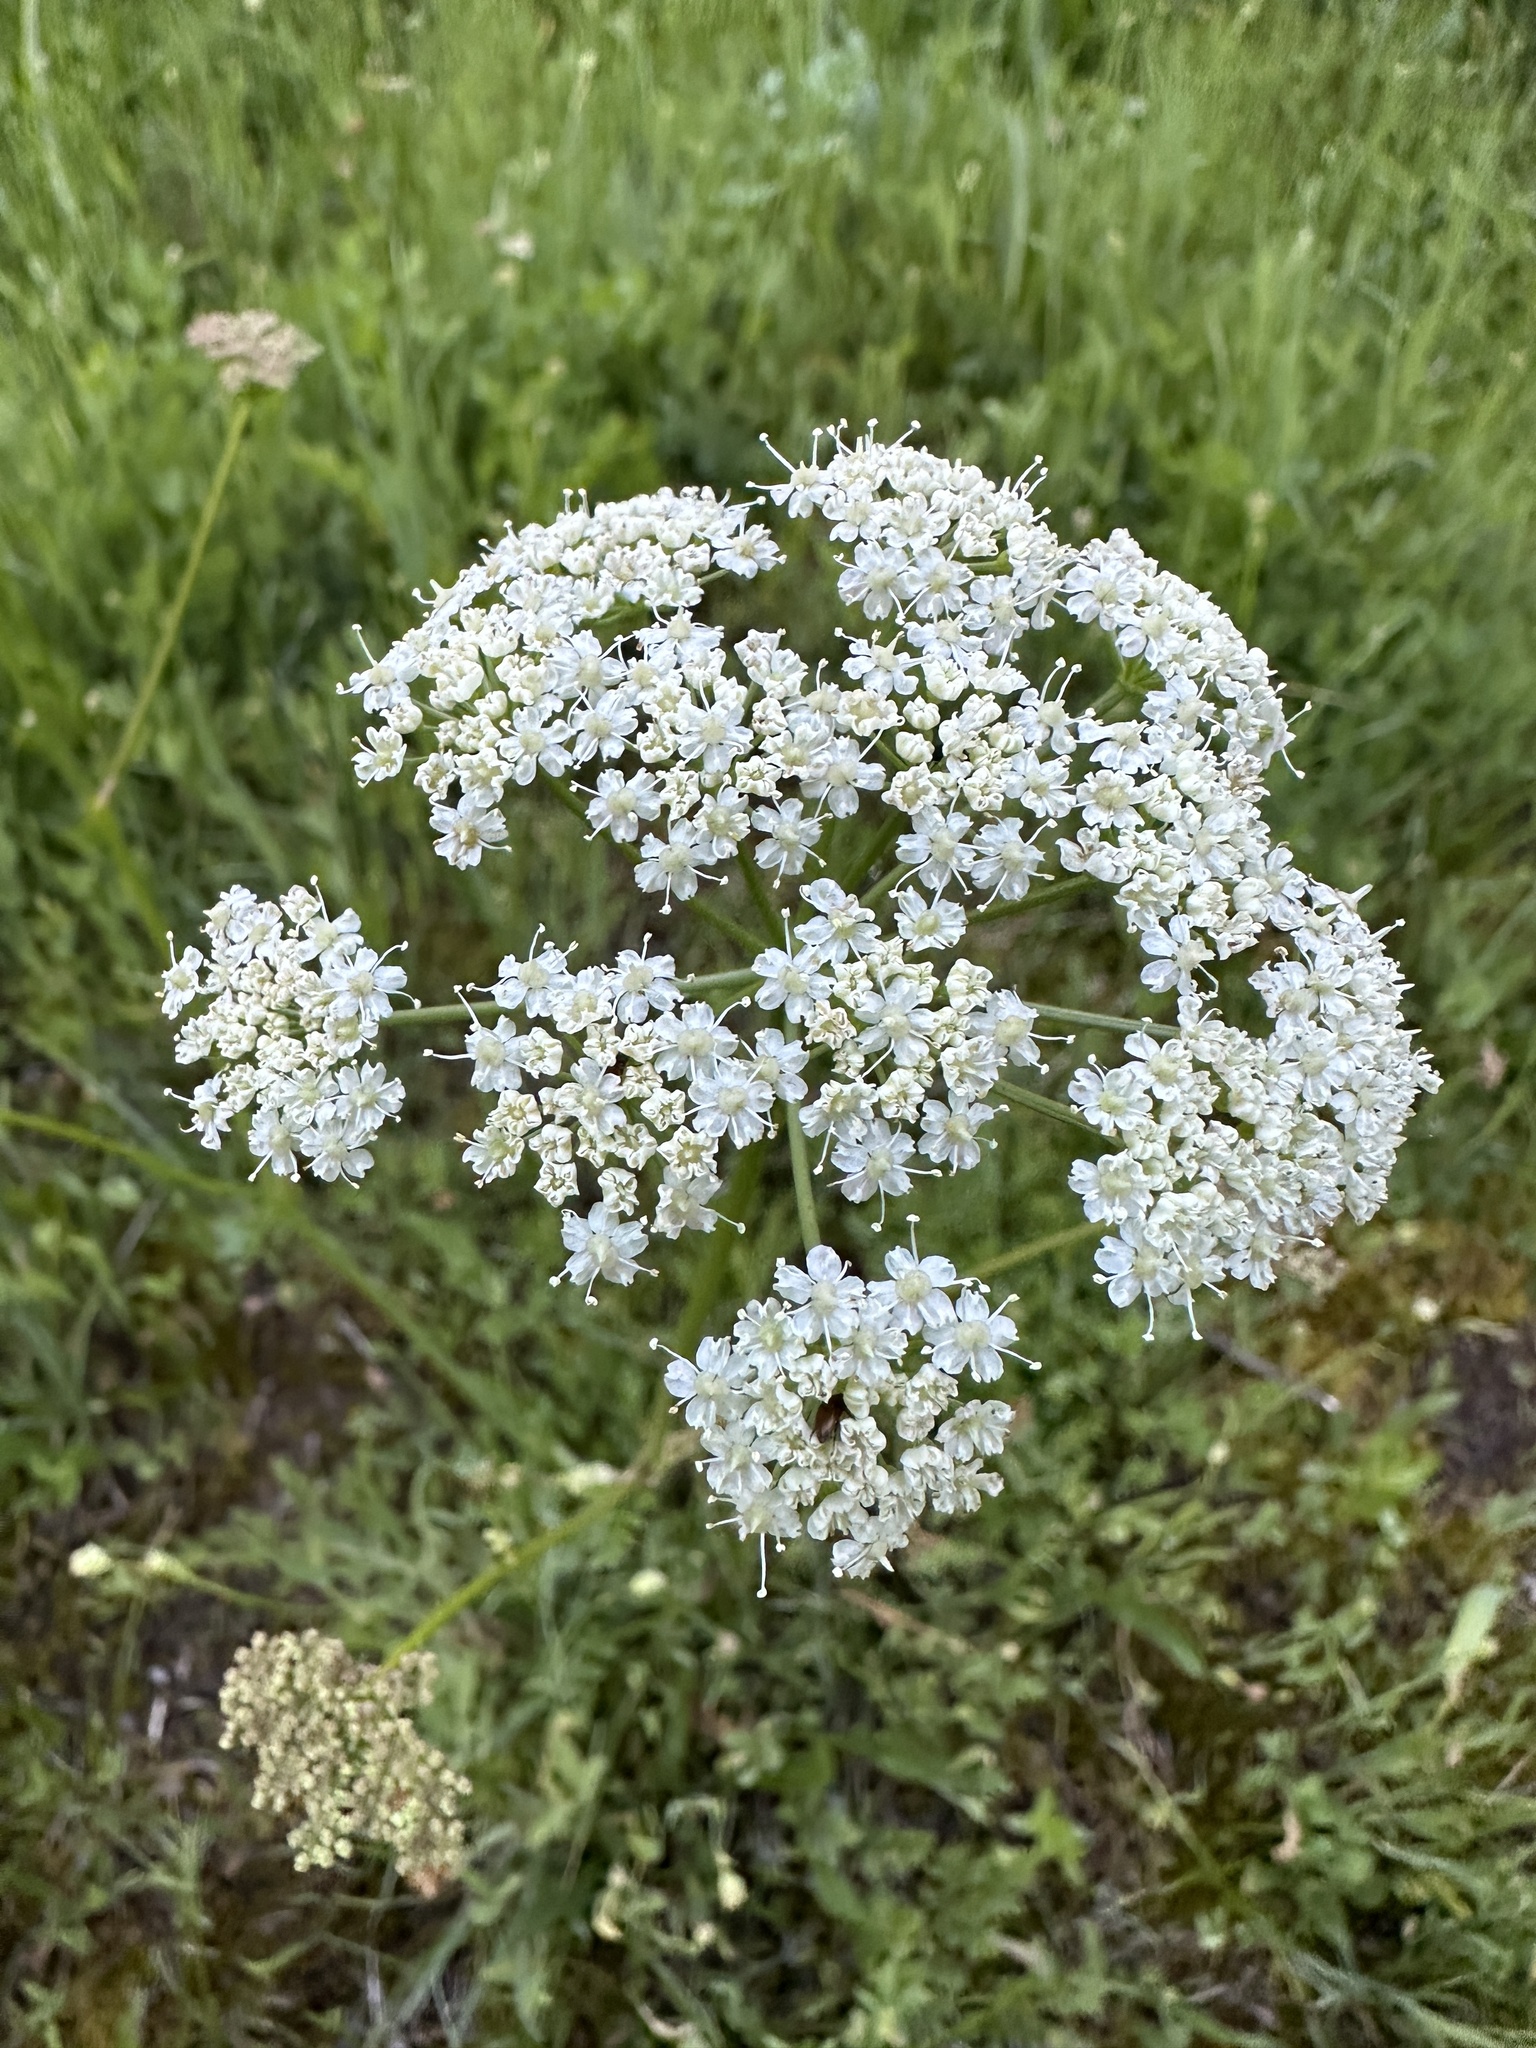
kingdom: Plantae
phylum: Tracheophyta
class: Magnoliopsida
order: Apiales
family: Apiaceae
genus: Ligusticum
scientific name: Ligusticum grayi
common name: Gray's licorice-root
